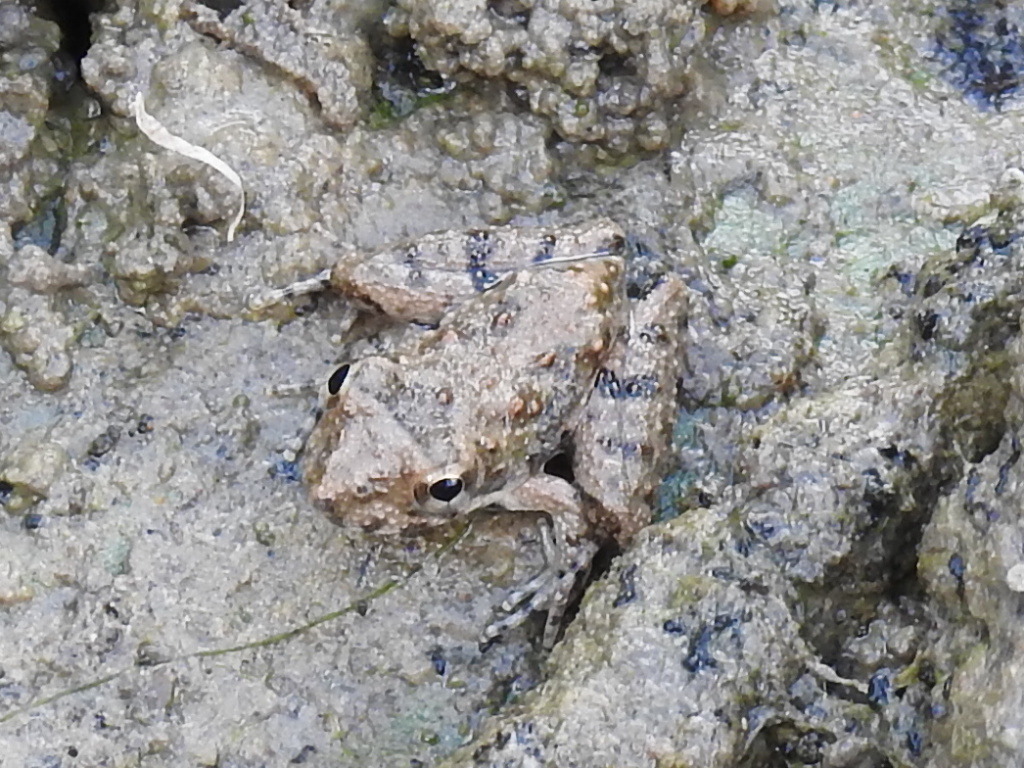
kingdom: Animalia
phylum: Chordata
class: Amphibia
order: Anura
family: Hylidae
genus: Acris
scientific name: Acris blanchardi
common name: Blanchard's cricket frog
